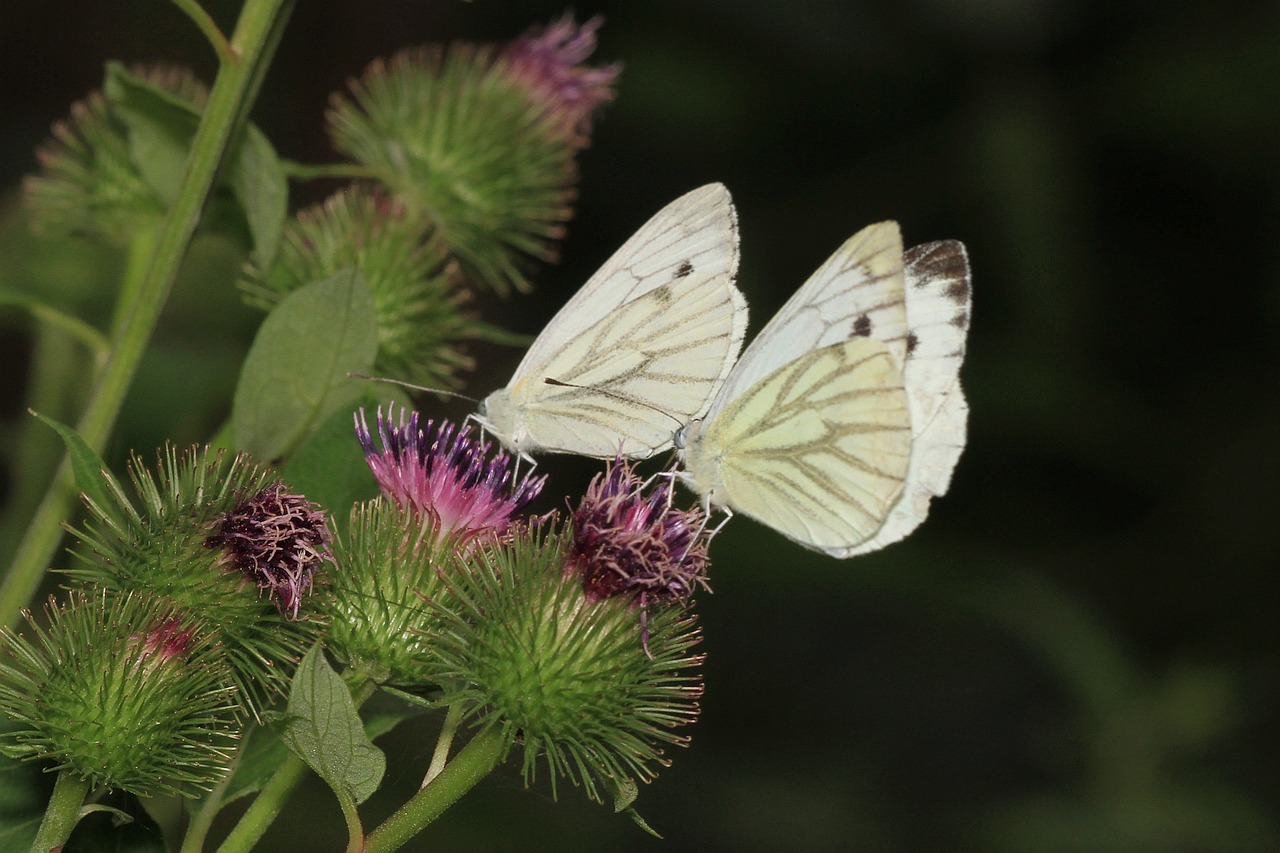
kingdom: Animalia
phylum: Arthropoda
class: Insecta
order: Lepidoptera
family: Pieridae
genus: Pieris
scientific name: Pieris napi
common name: Green-veined white
